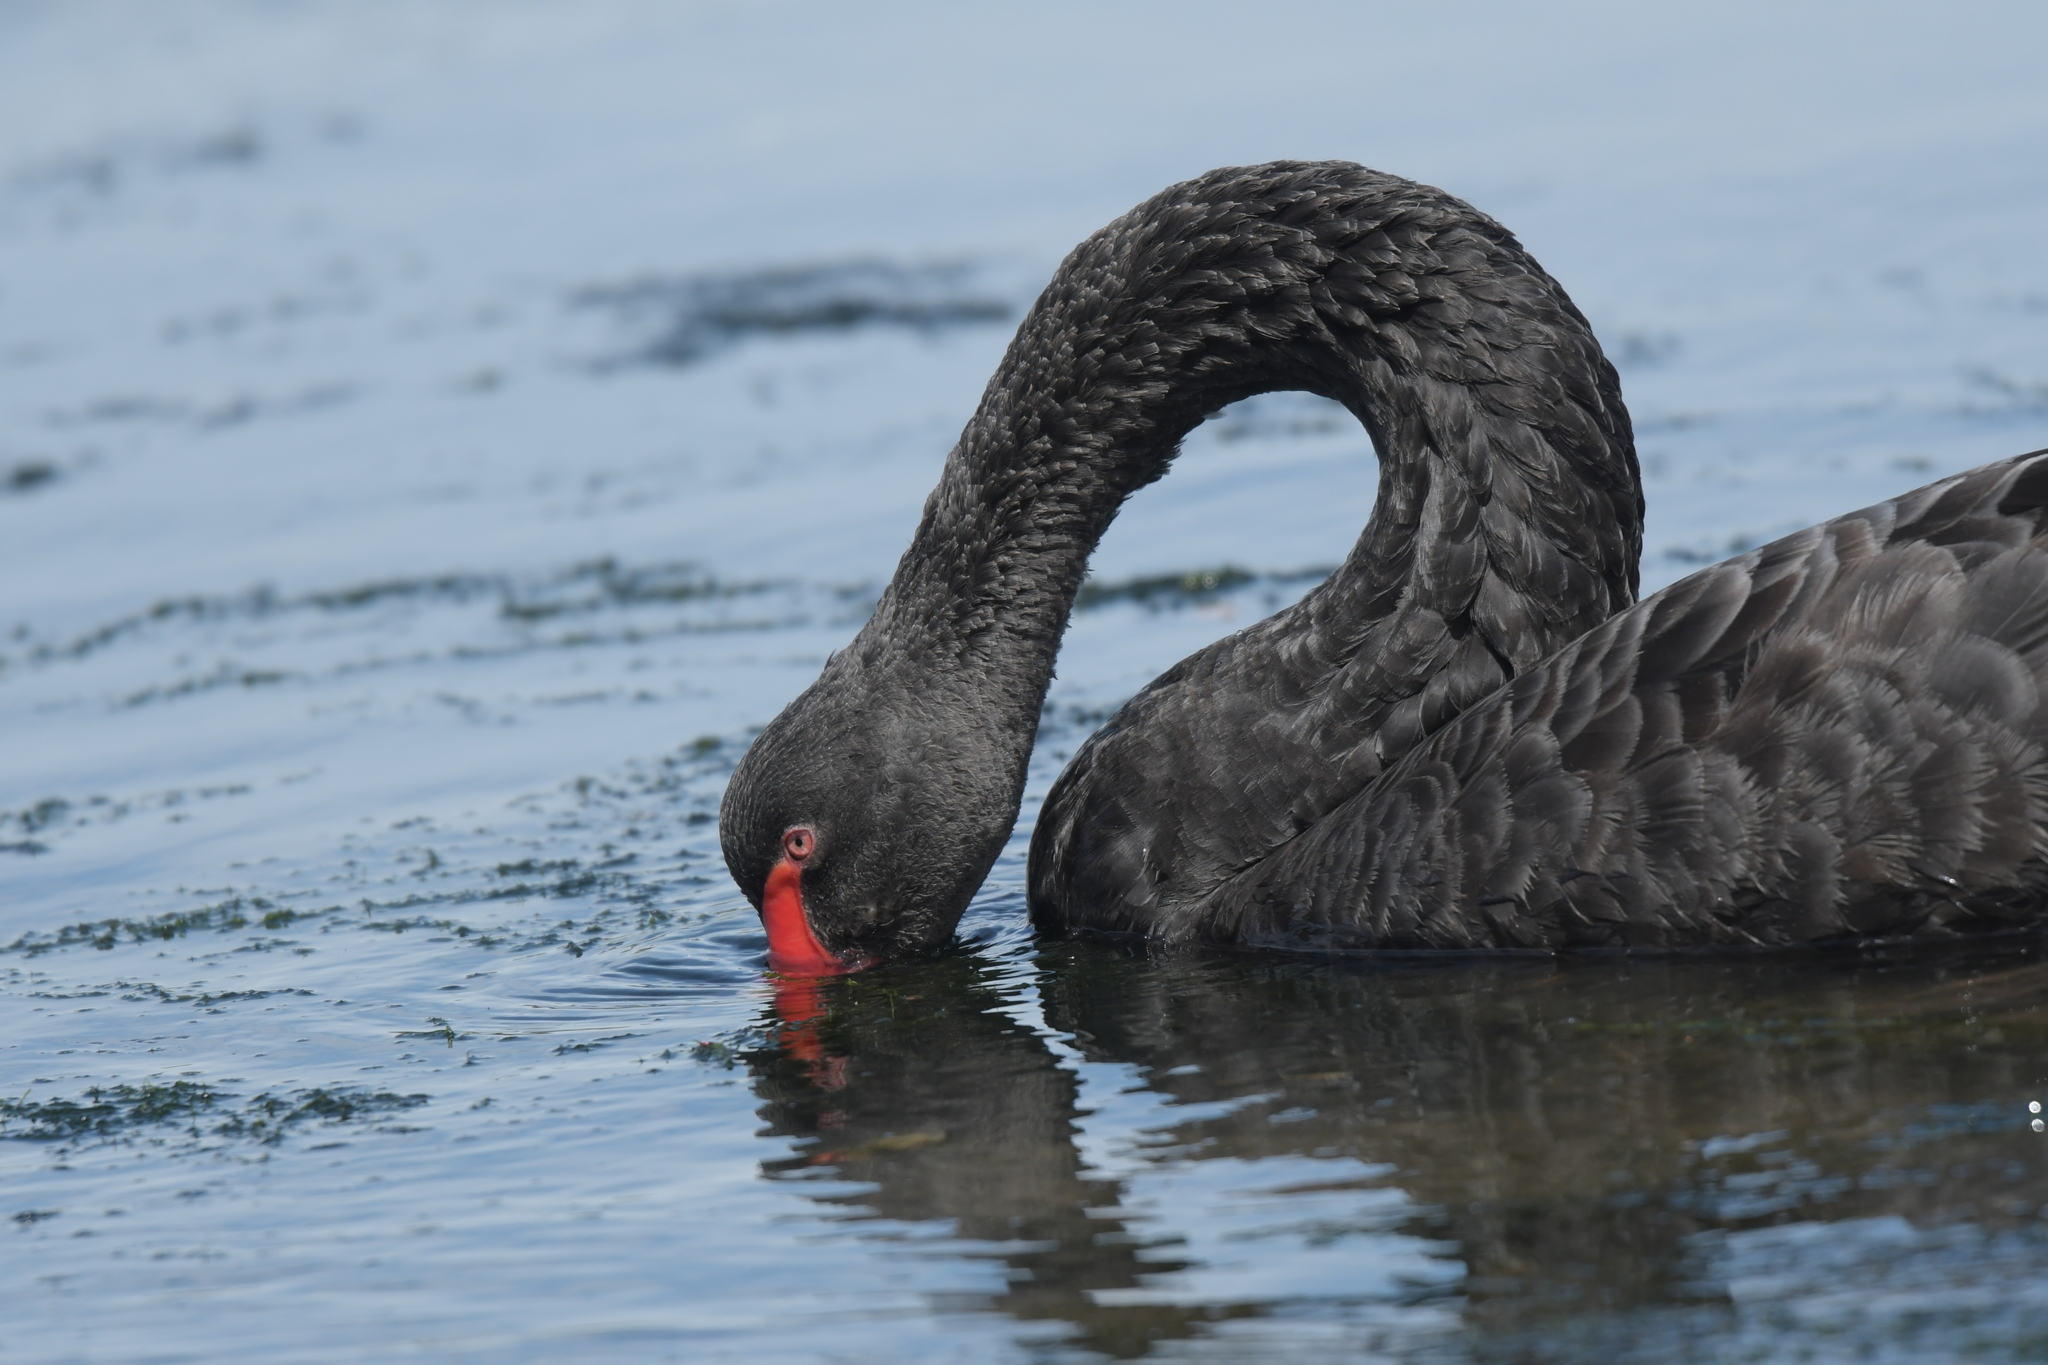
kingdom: Animalia
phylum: Chordata
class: Aves
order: Anseriformes
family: Anatidae
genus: Cygnus
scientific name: Cygnus atratus
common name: Black swan
